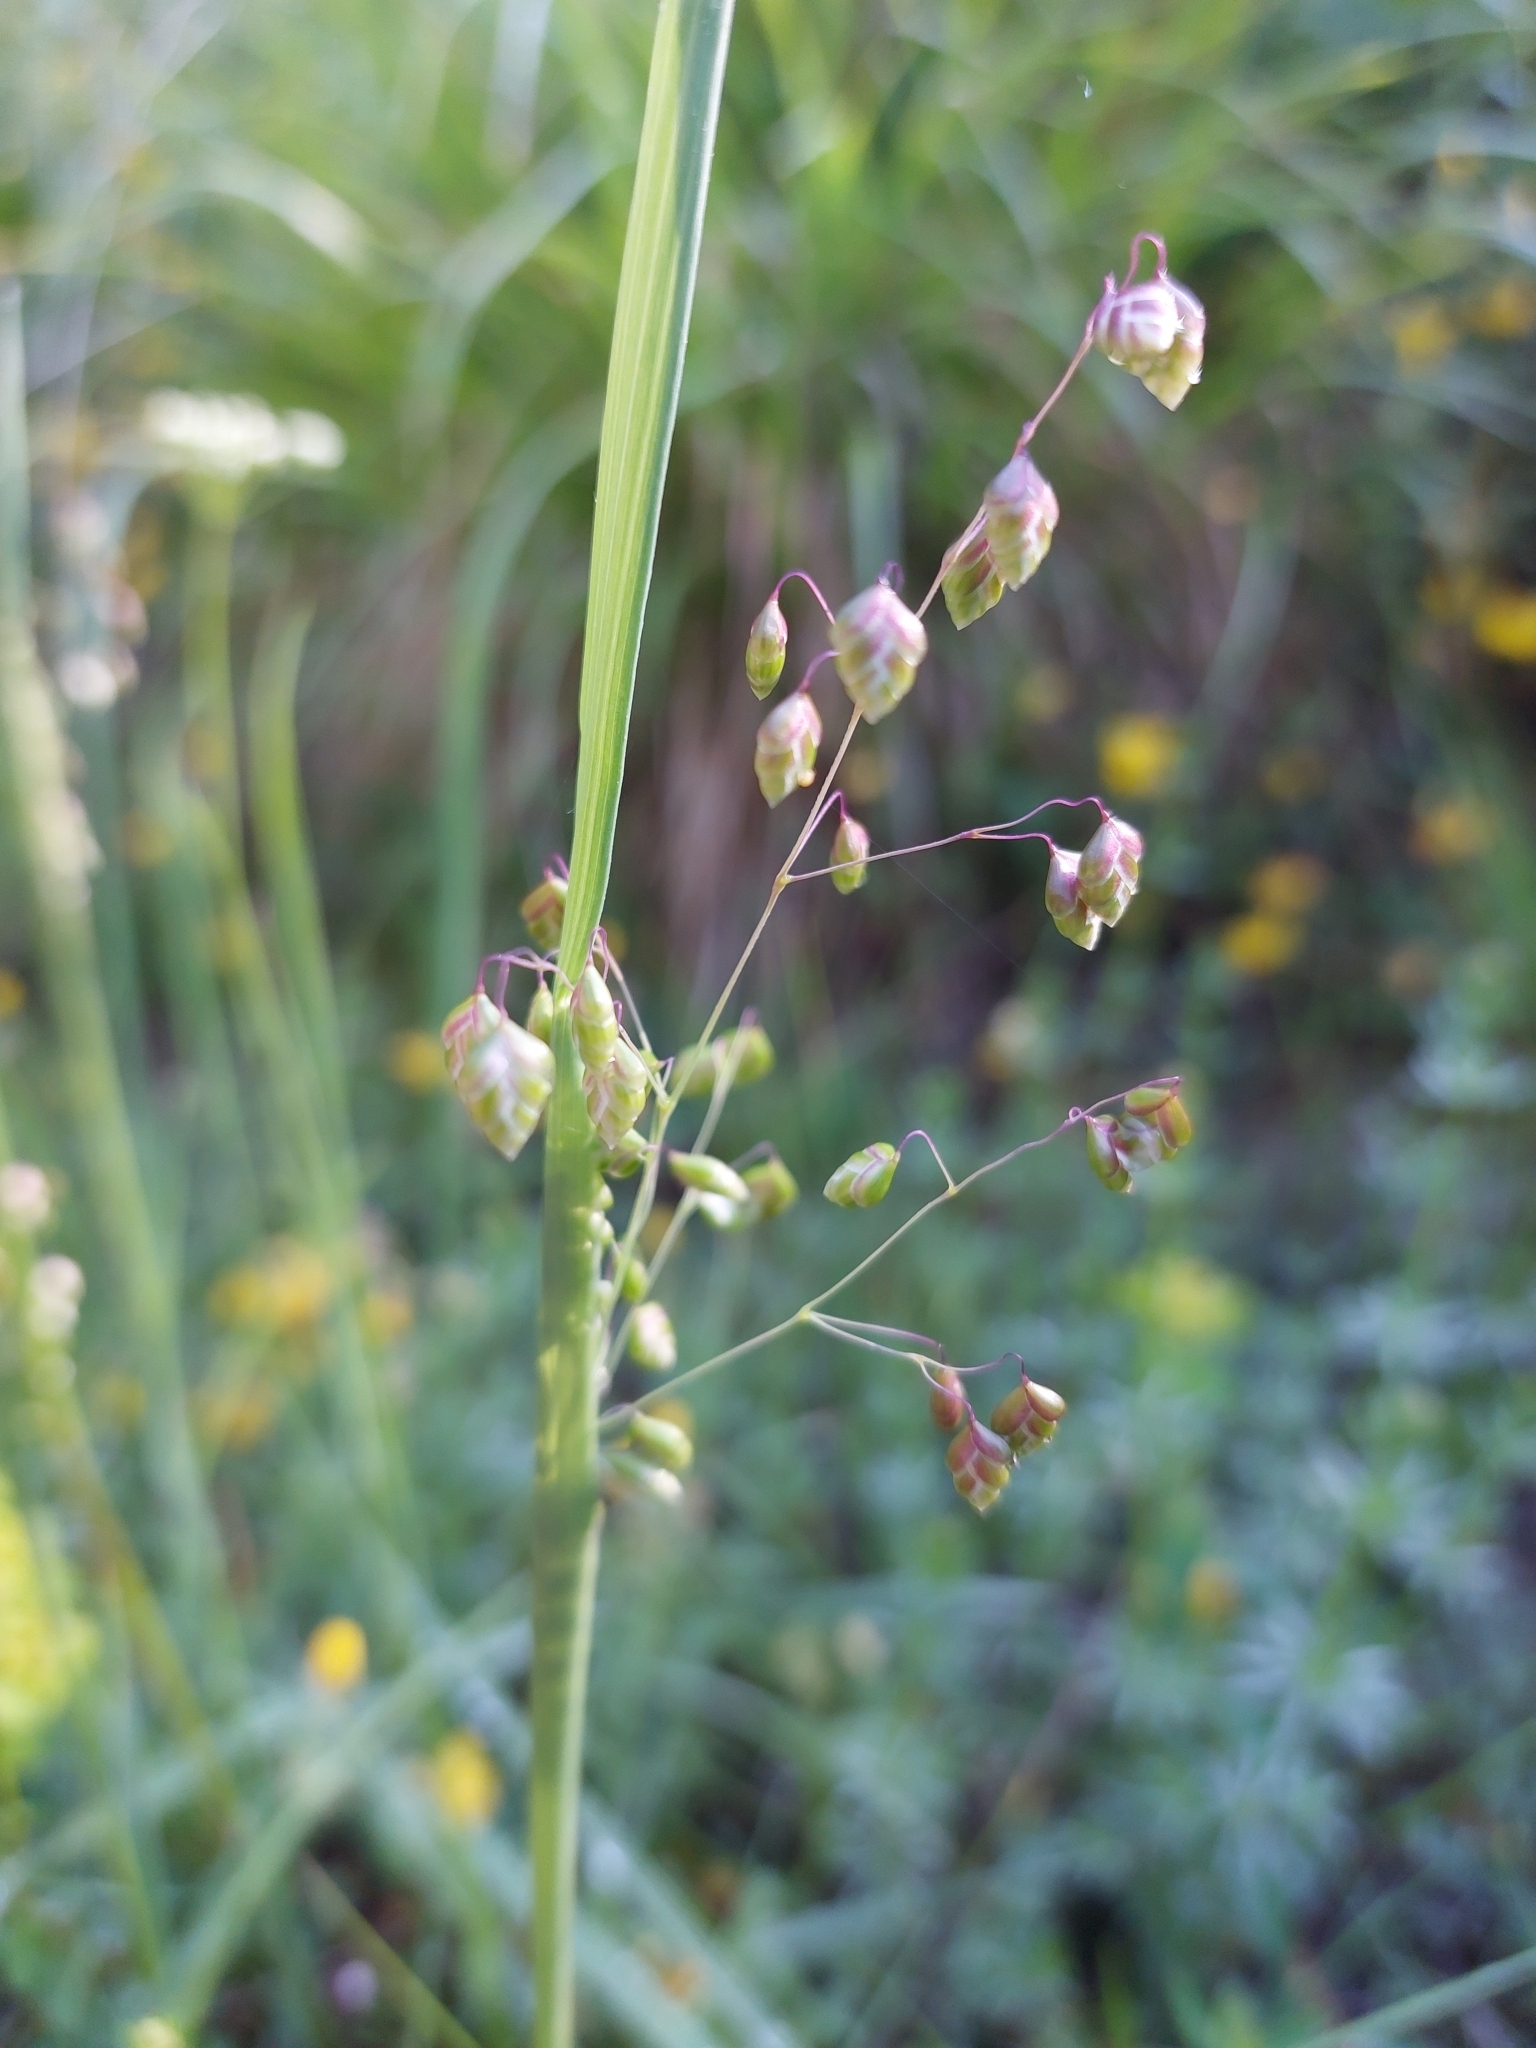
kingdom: Plantae
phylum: Tracheophyta
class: Liliopsida
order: Poales
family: Poaceae
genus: Briza
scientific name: Briza media
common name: Quaking grass
